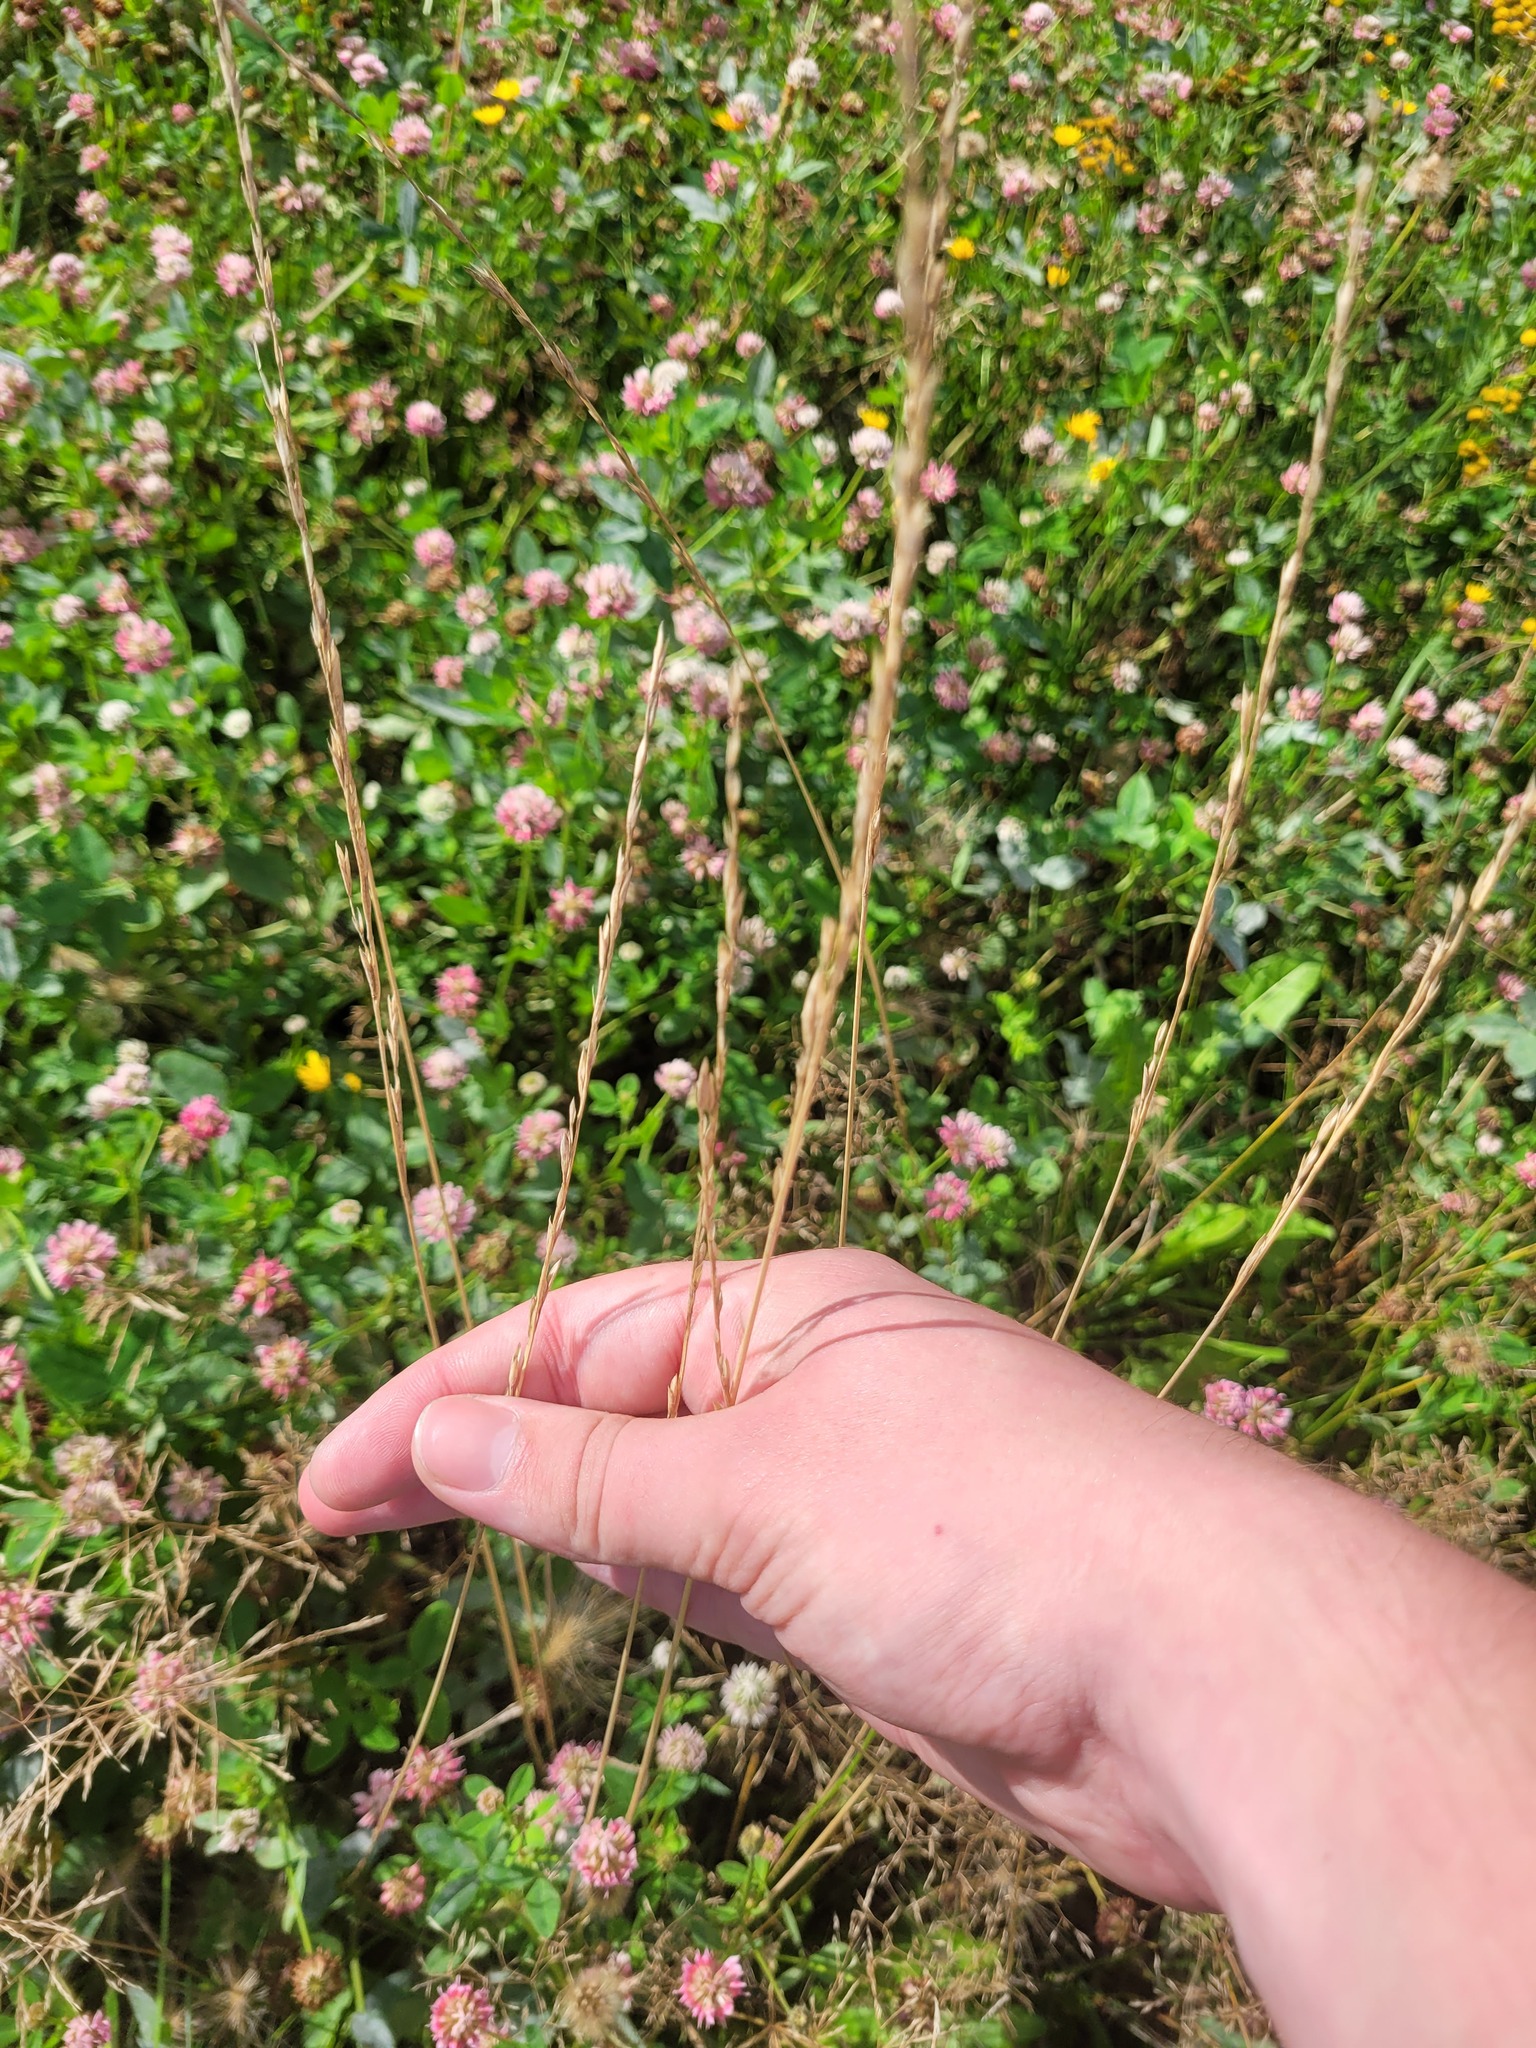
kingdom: Plantae
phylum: Tracheophyta
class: Liliopsida
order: Poales
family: Poaceae
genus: Lolium
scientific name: Lolium pratense
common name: Dover grass
